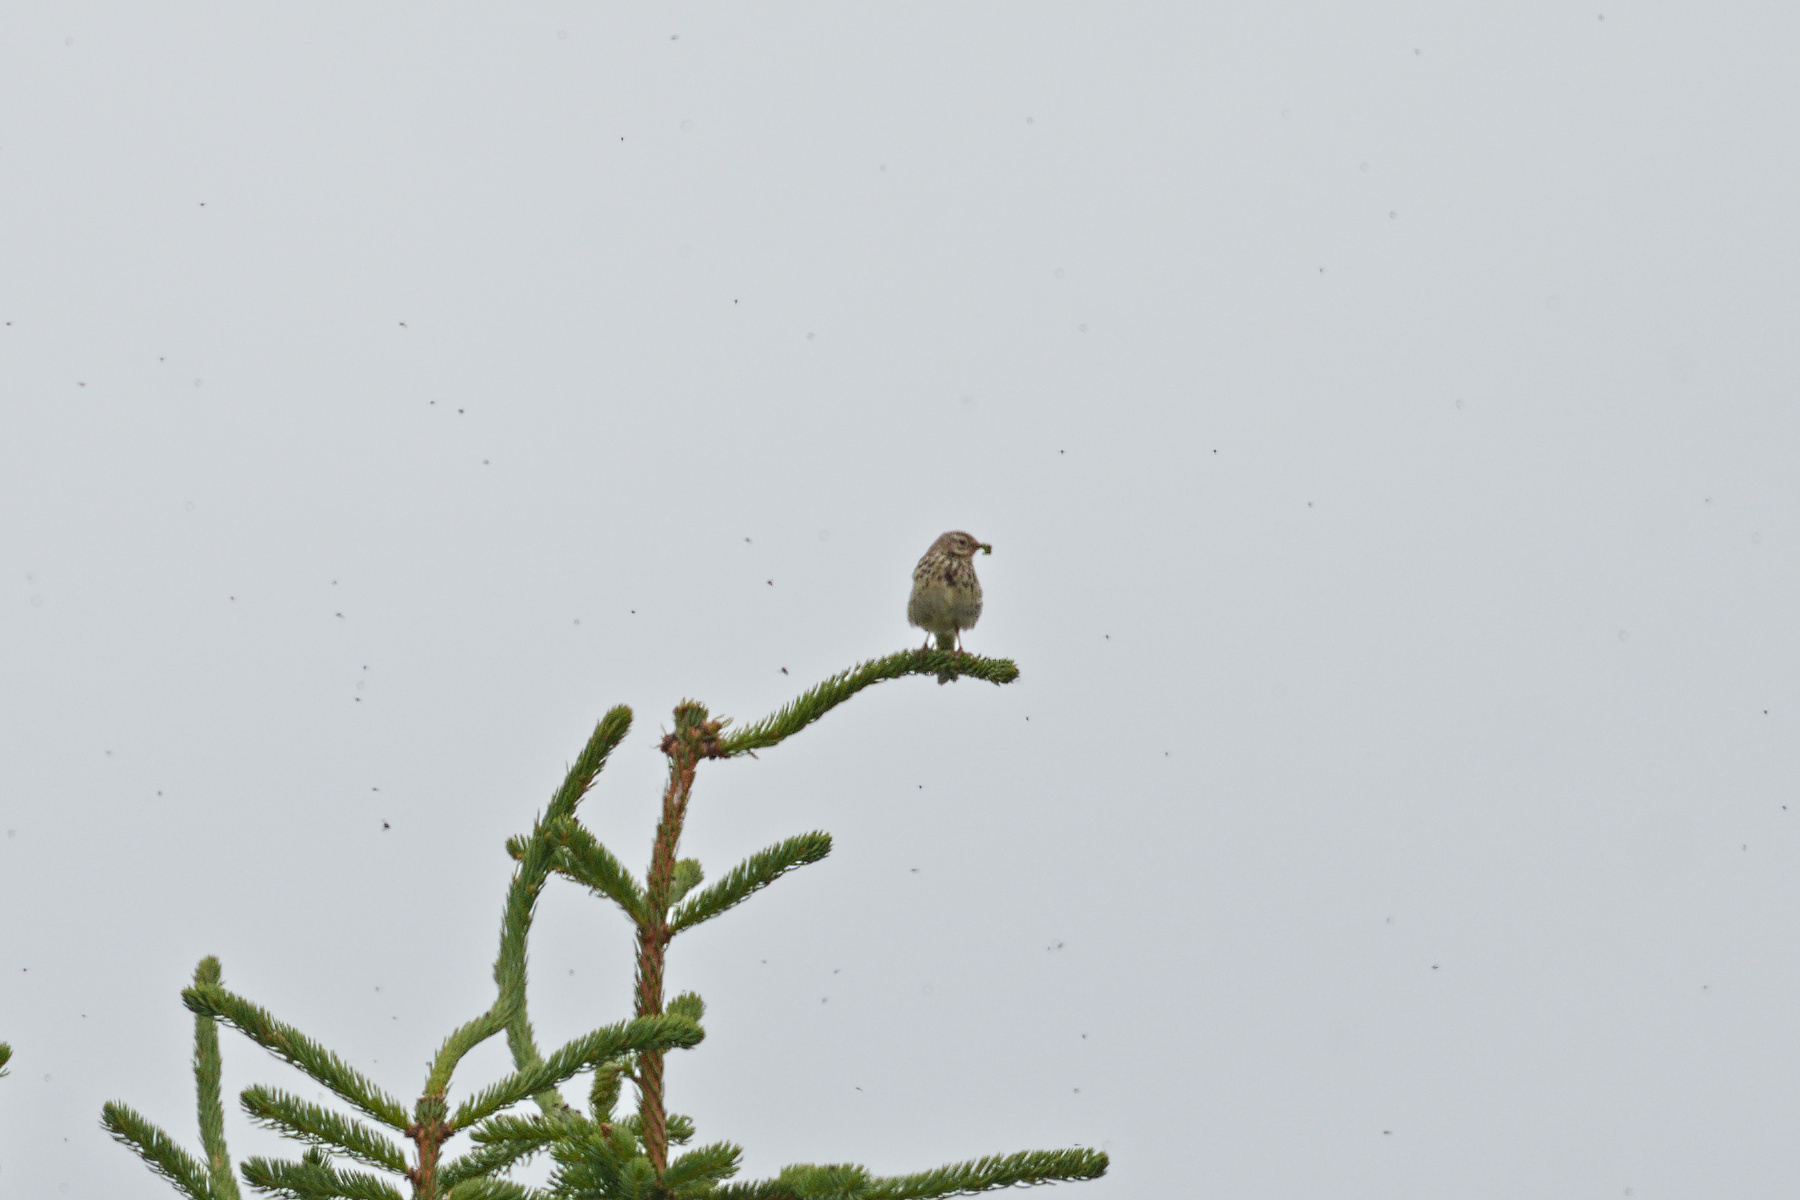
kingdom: Animalia
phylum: Chordata
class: Aves
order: Passeriformes
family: Motacillidae
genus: Anthus
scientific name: Anthus pratensis
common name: Meadow pipit
